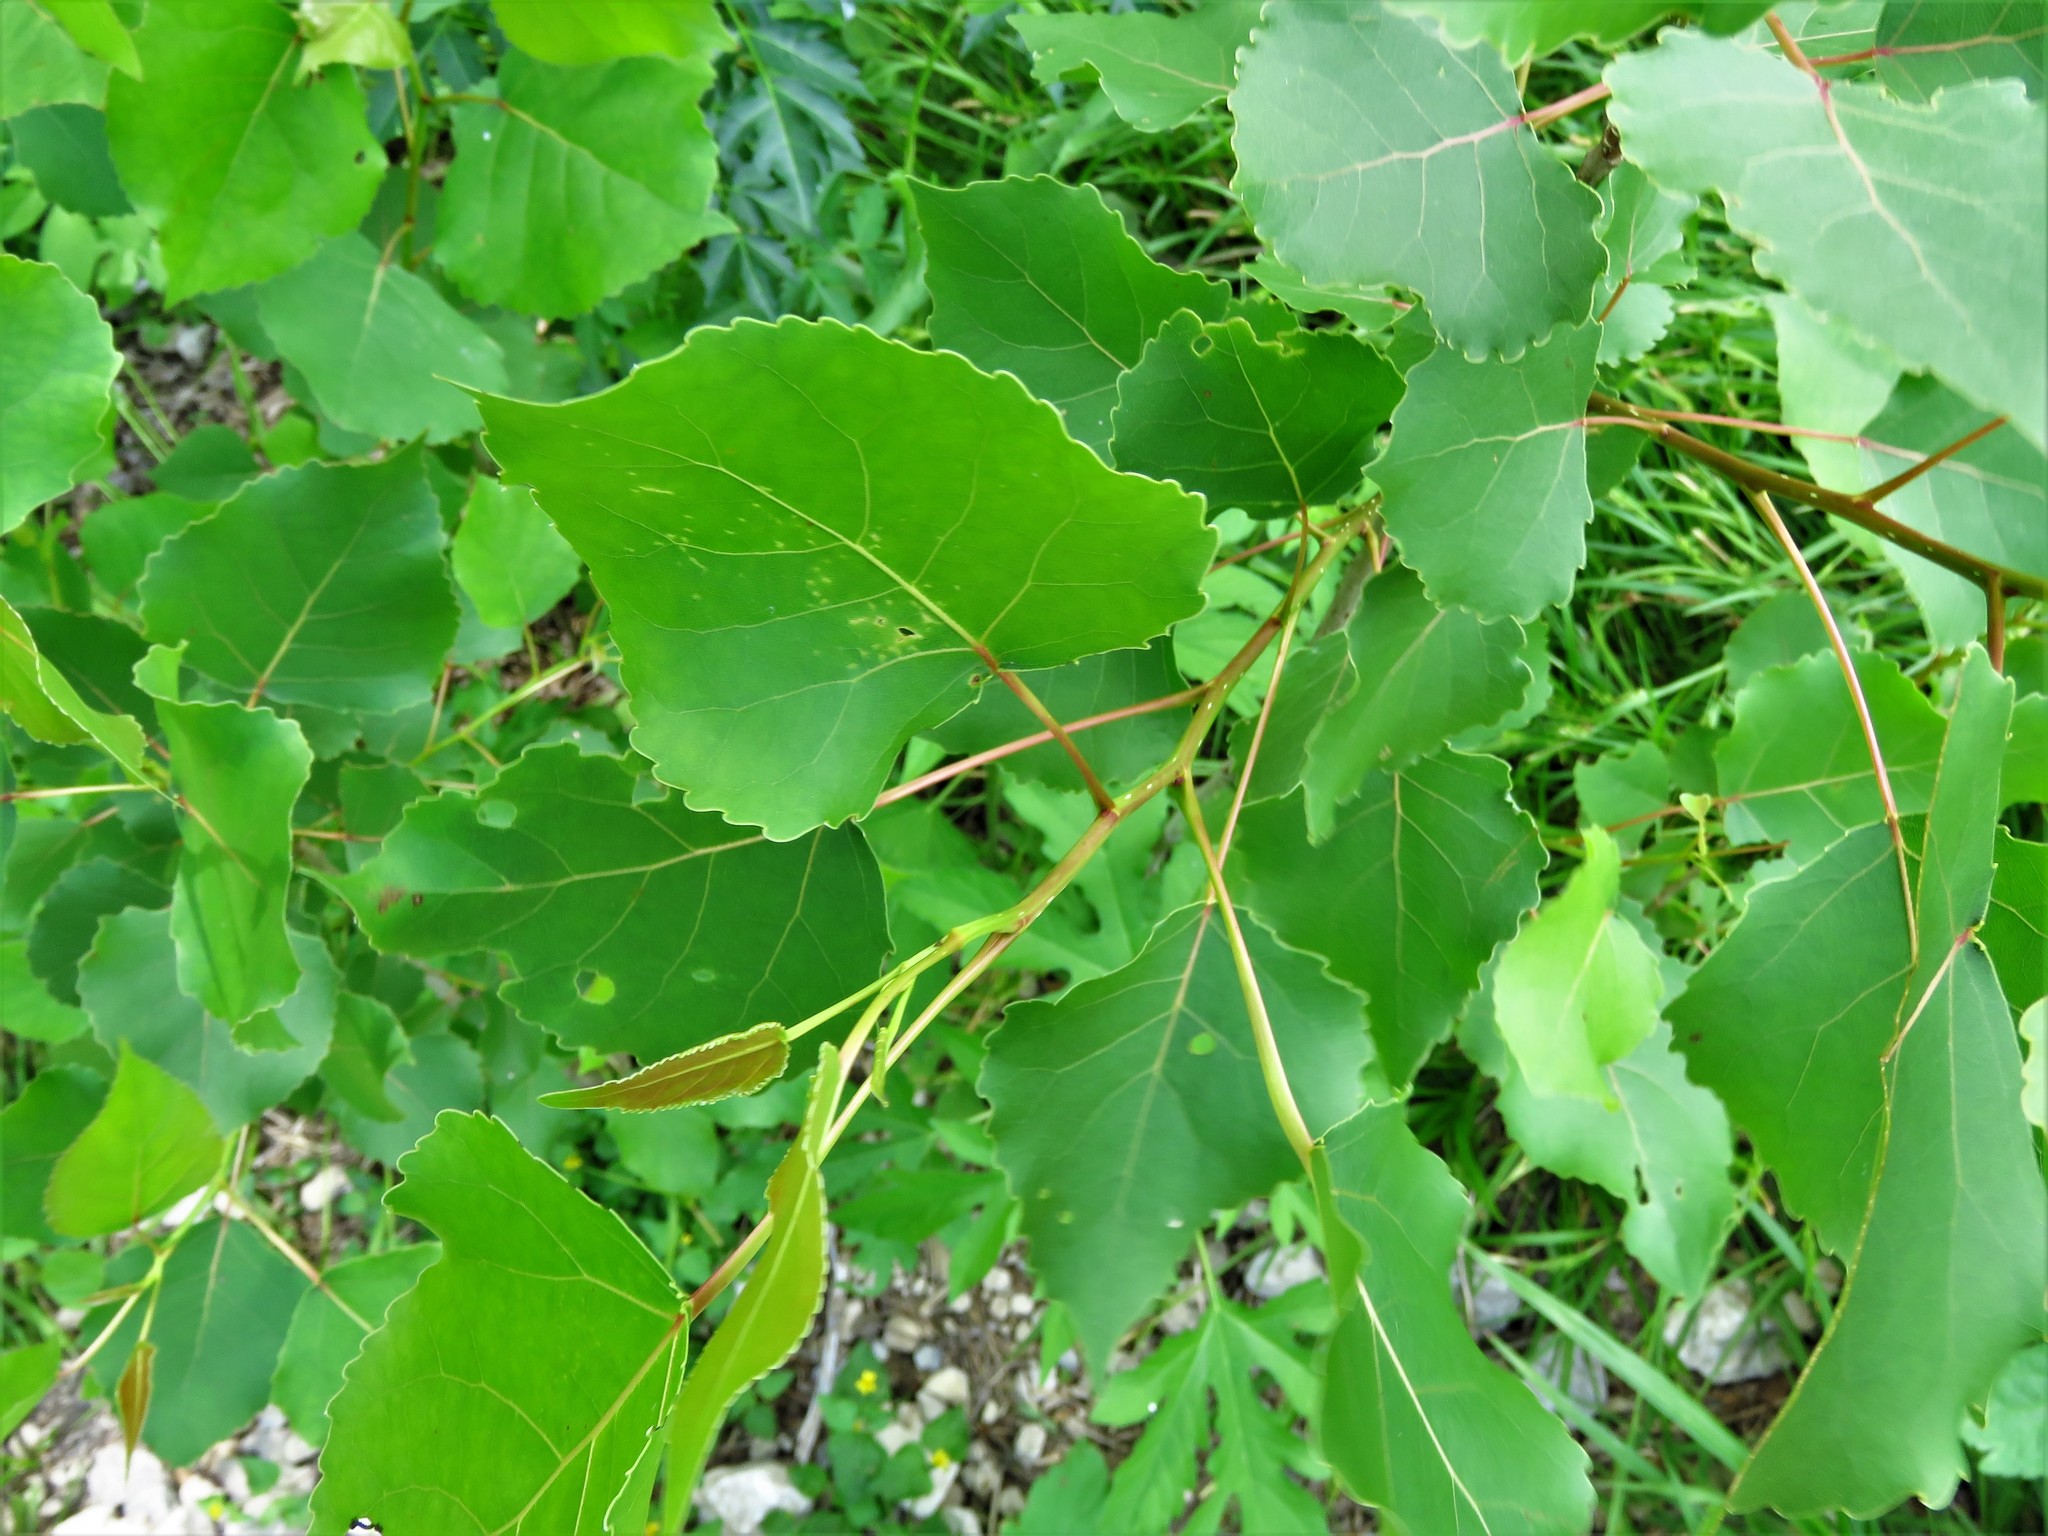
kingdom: Plantae
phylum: Tracheophyta
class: Magnoliopsida
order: Malpighiales
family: Salicaceae
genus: Populus
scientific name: Populus deltoides
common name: Eastern cottonwood
